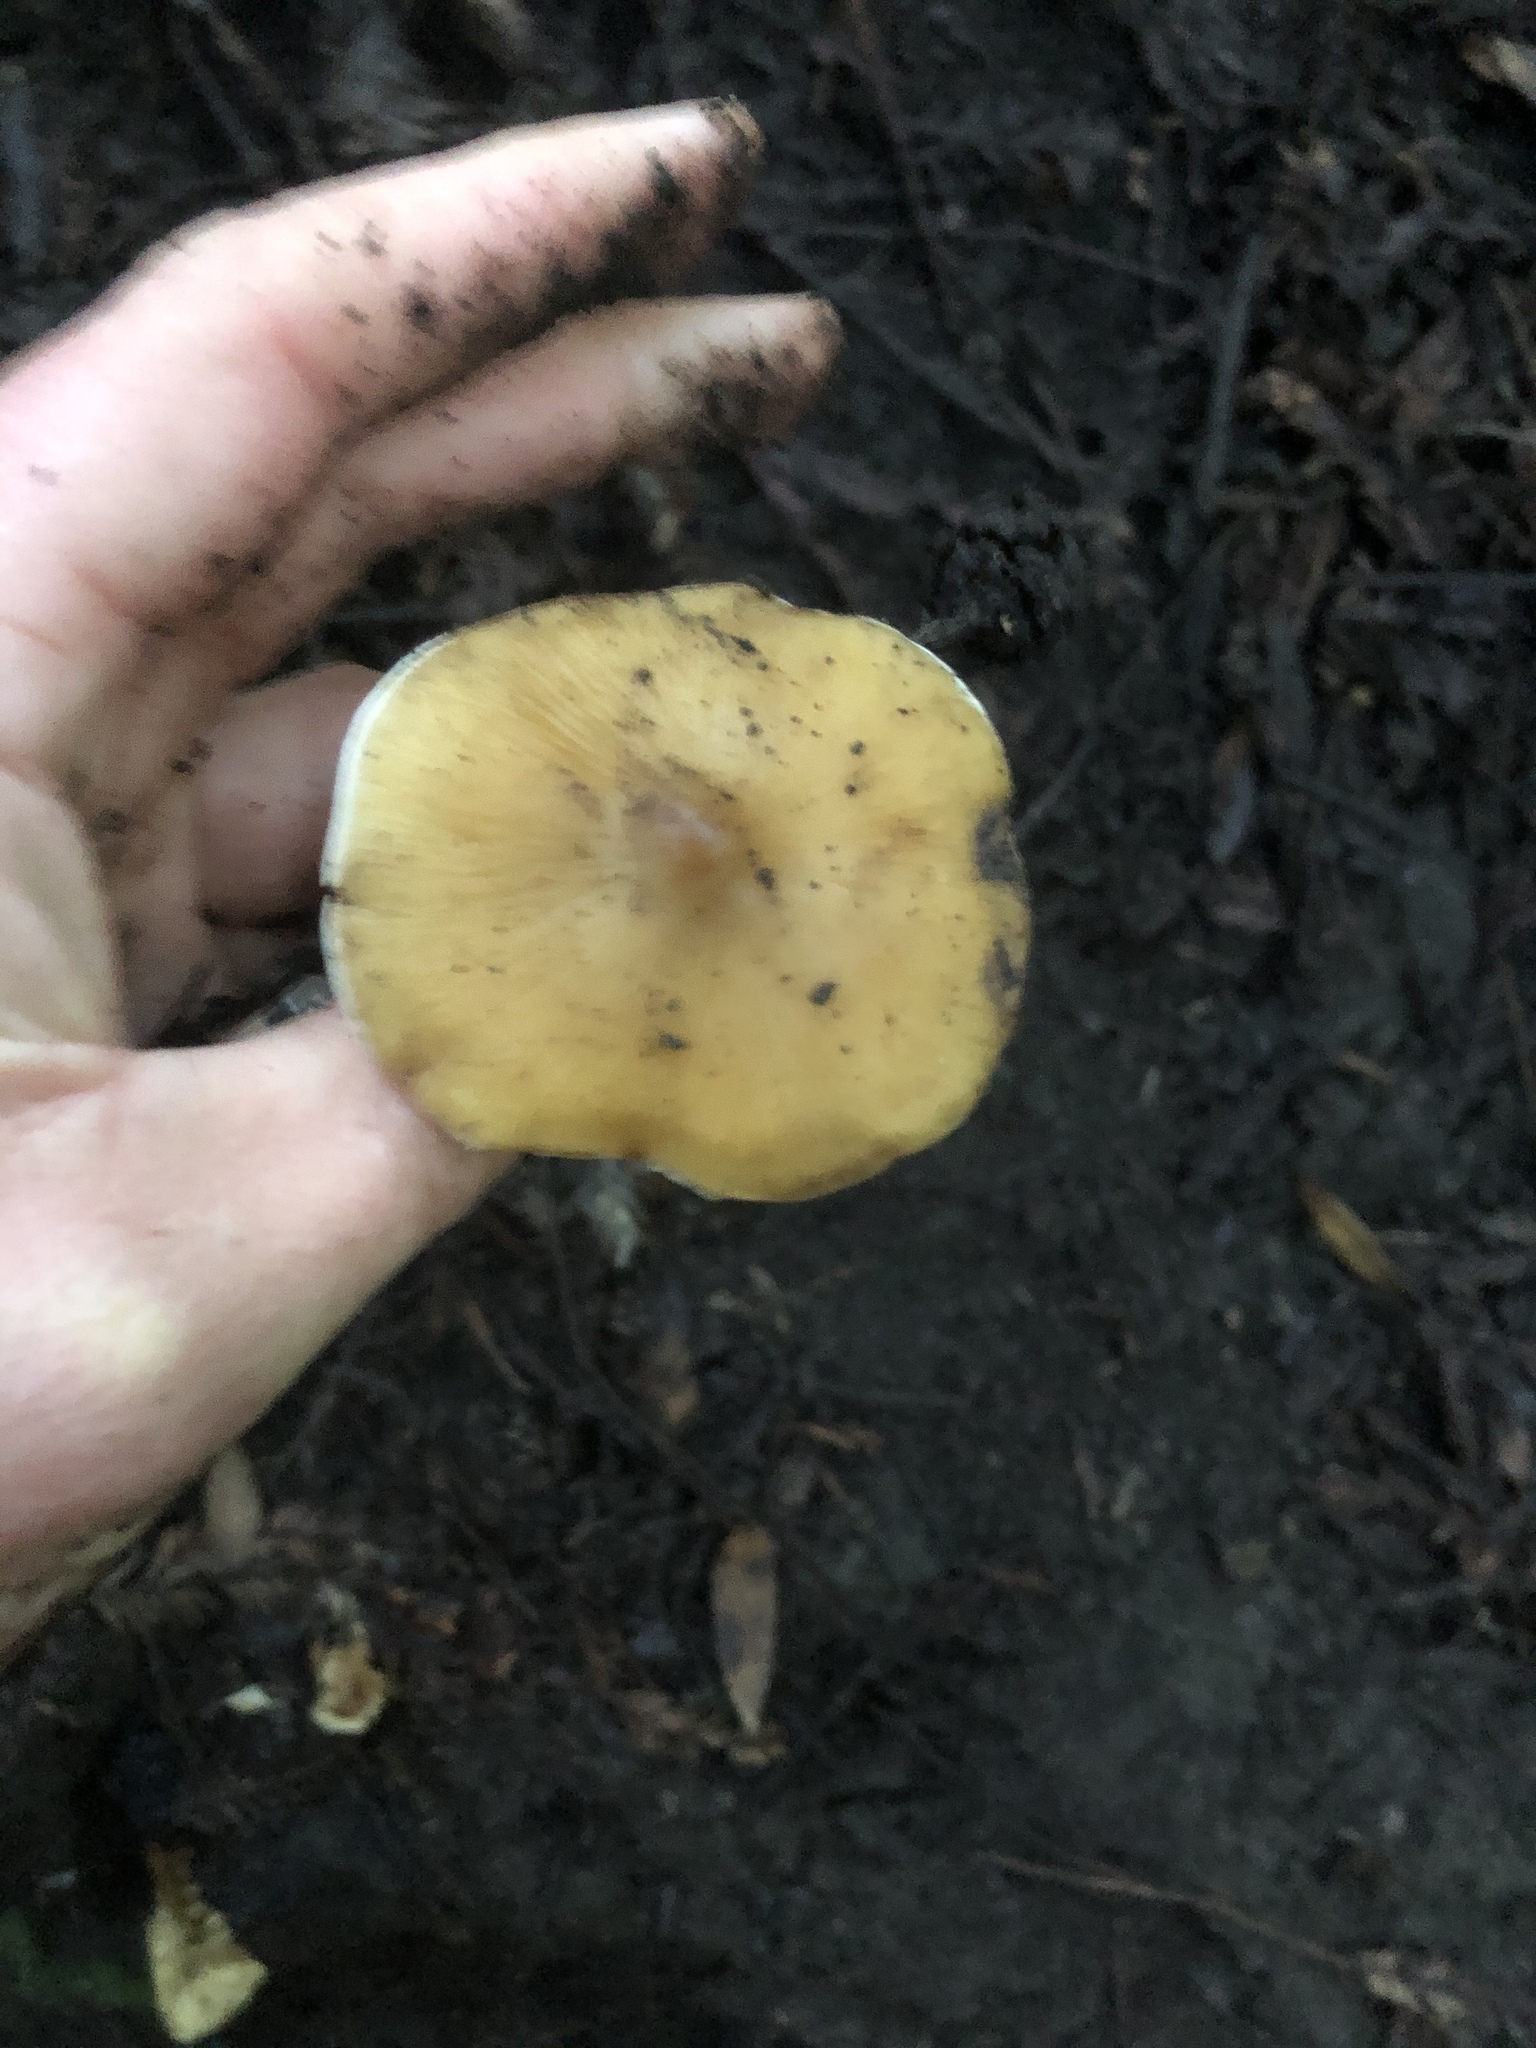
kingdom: Fungi
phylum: Basidiomycota
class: Agaricomycetes
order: Agaricales
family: Tricholomataceae
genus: Caulorhiza
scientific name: Caulorhiza umbonata
